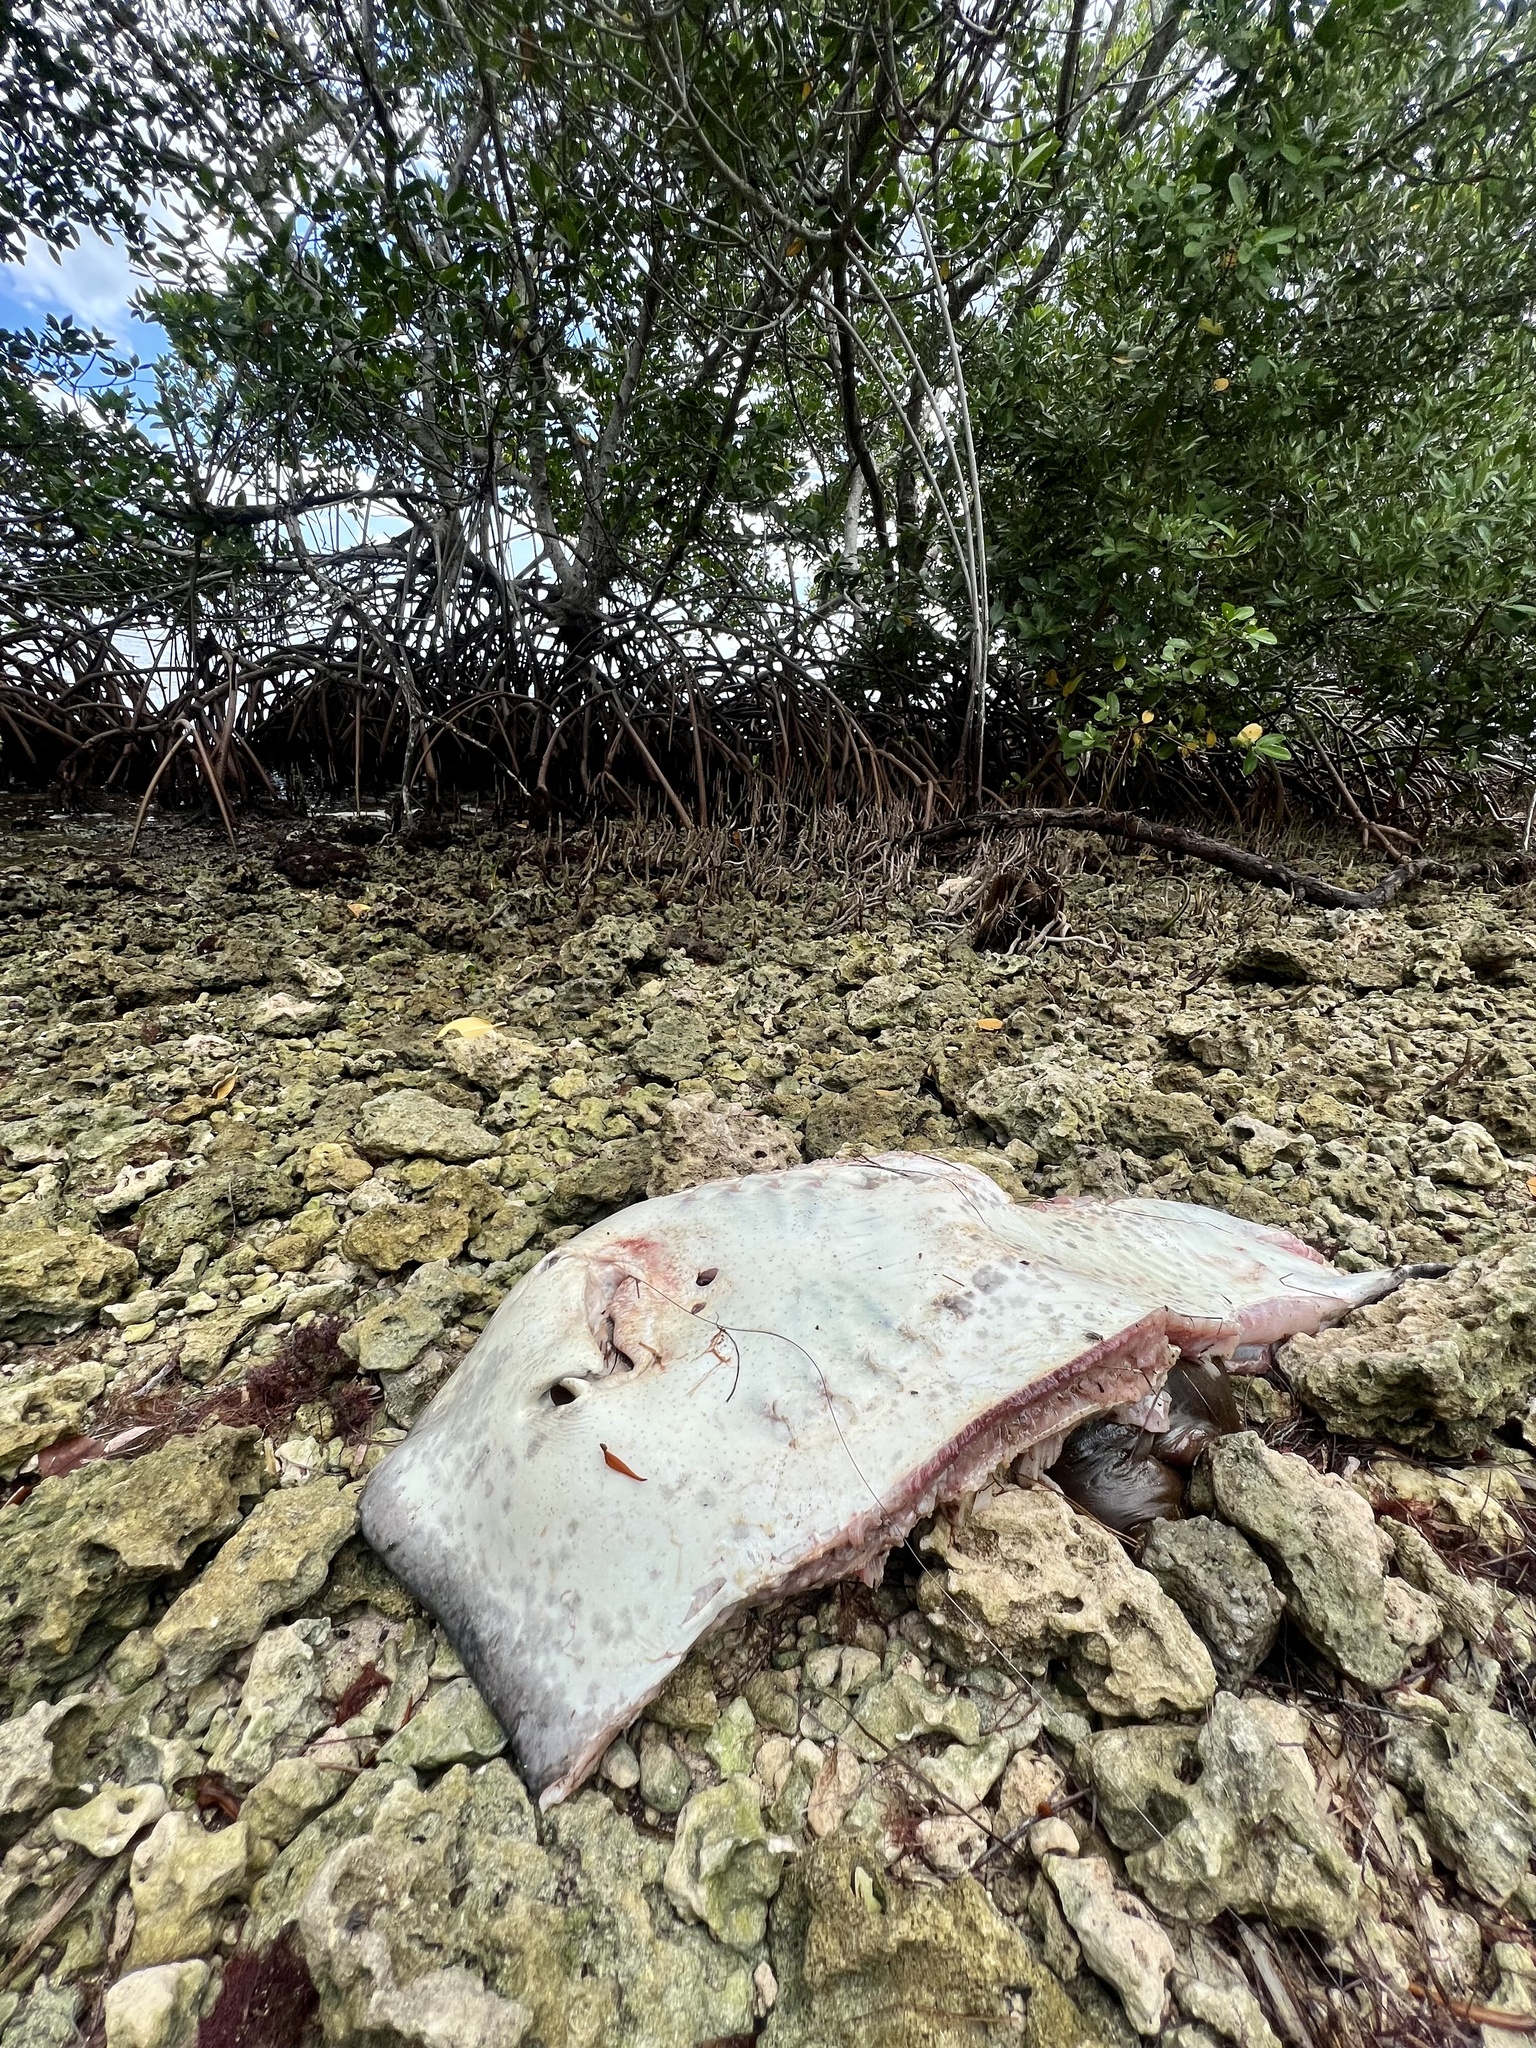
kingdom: Animalia
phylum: Chordata
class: Elasmobranchii
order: Myliobatiformes
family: Dasyatidae
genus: Hypanus
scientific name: Hypanus americanus
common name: Southern stingray
